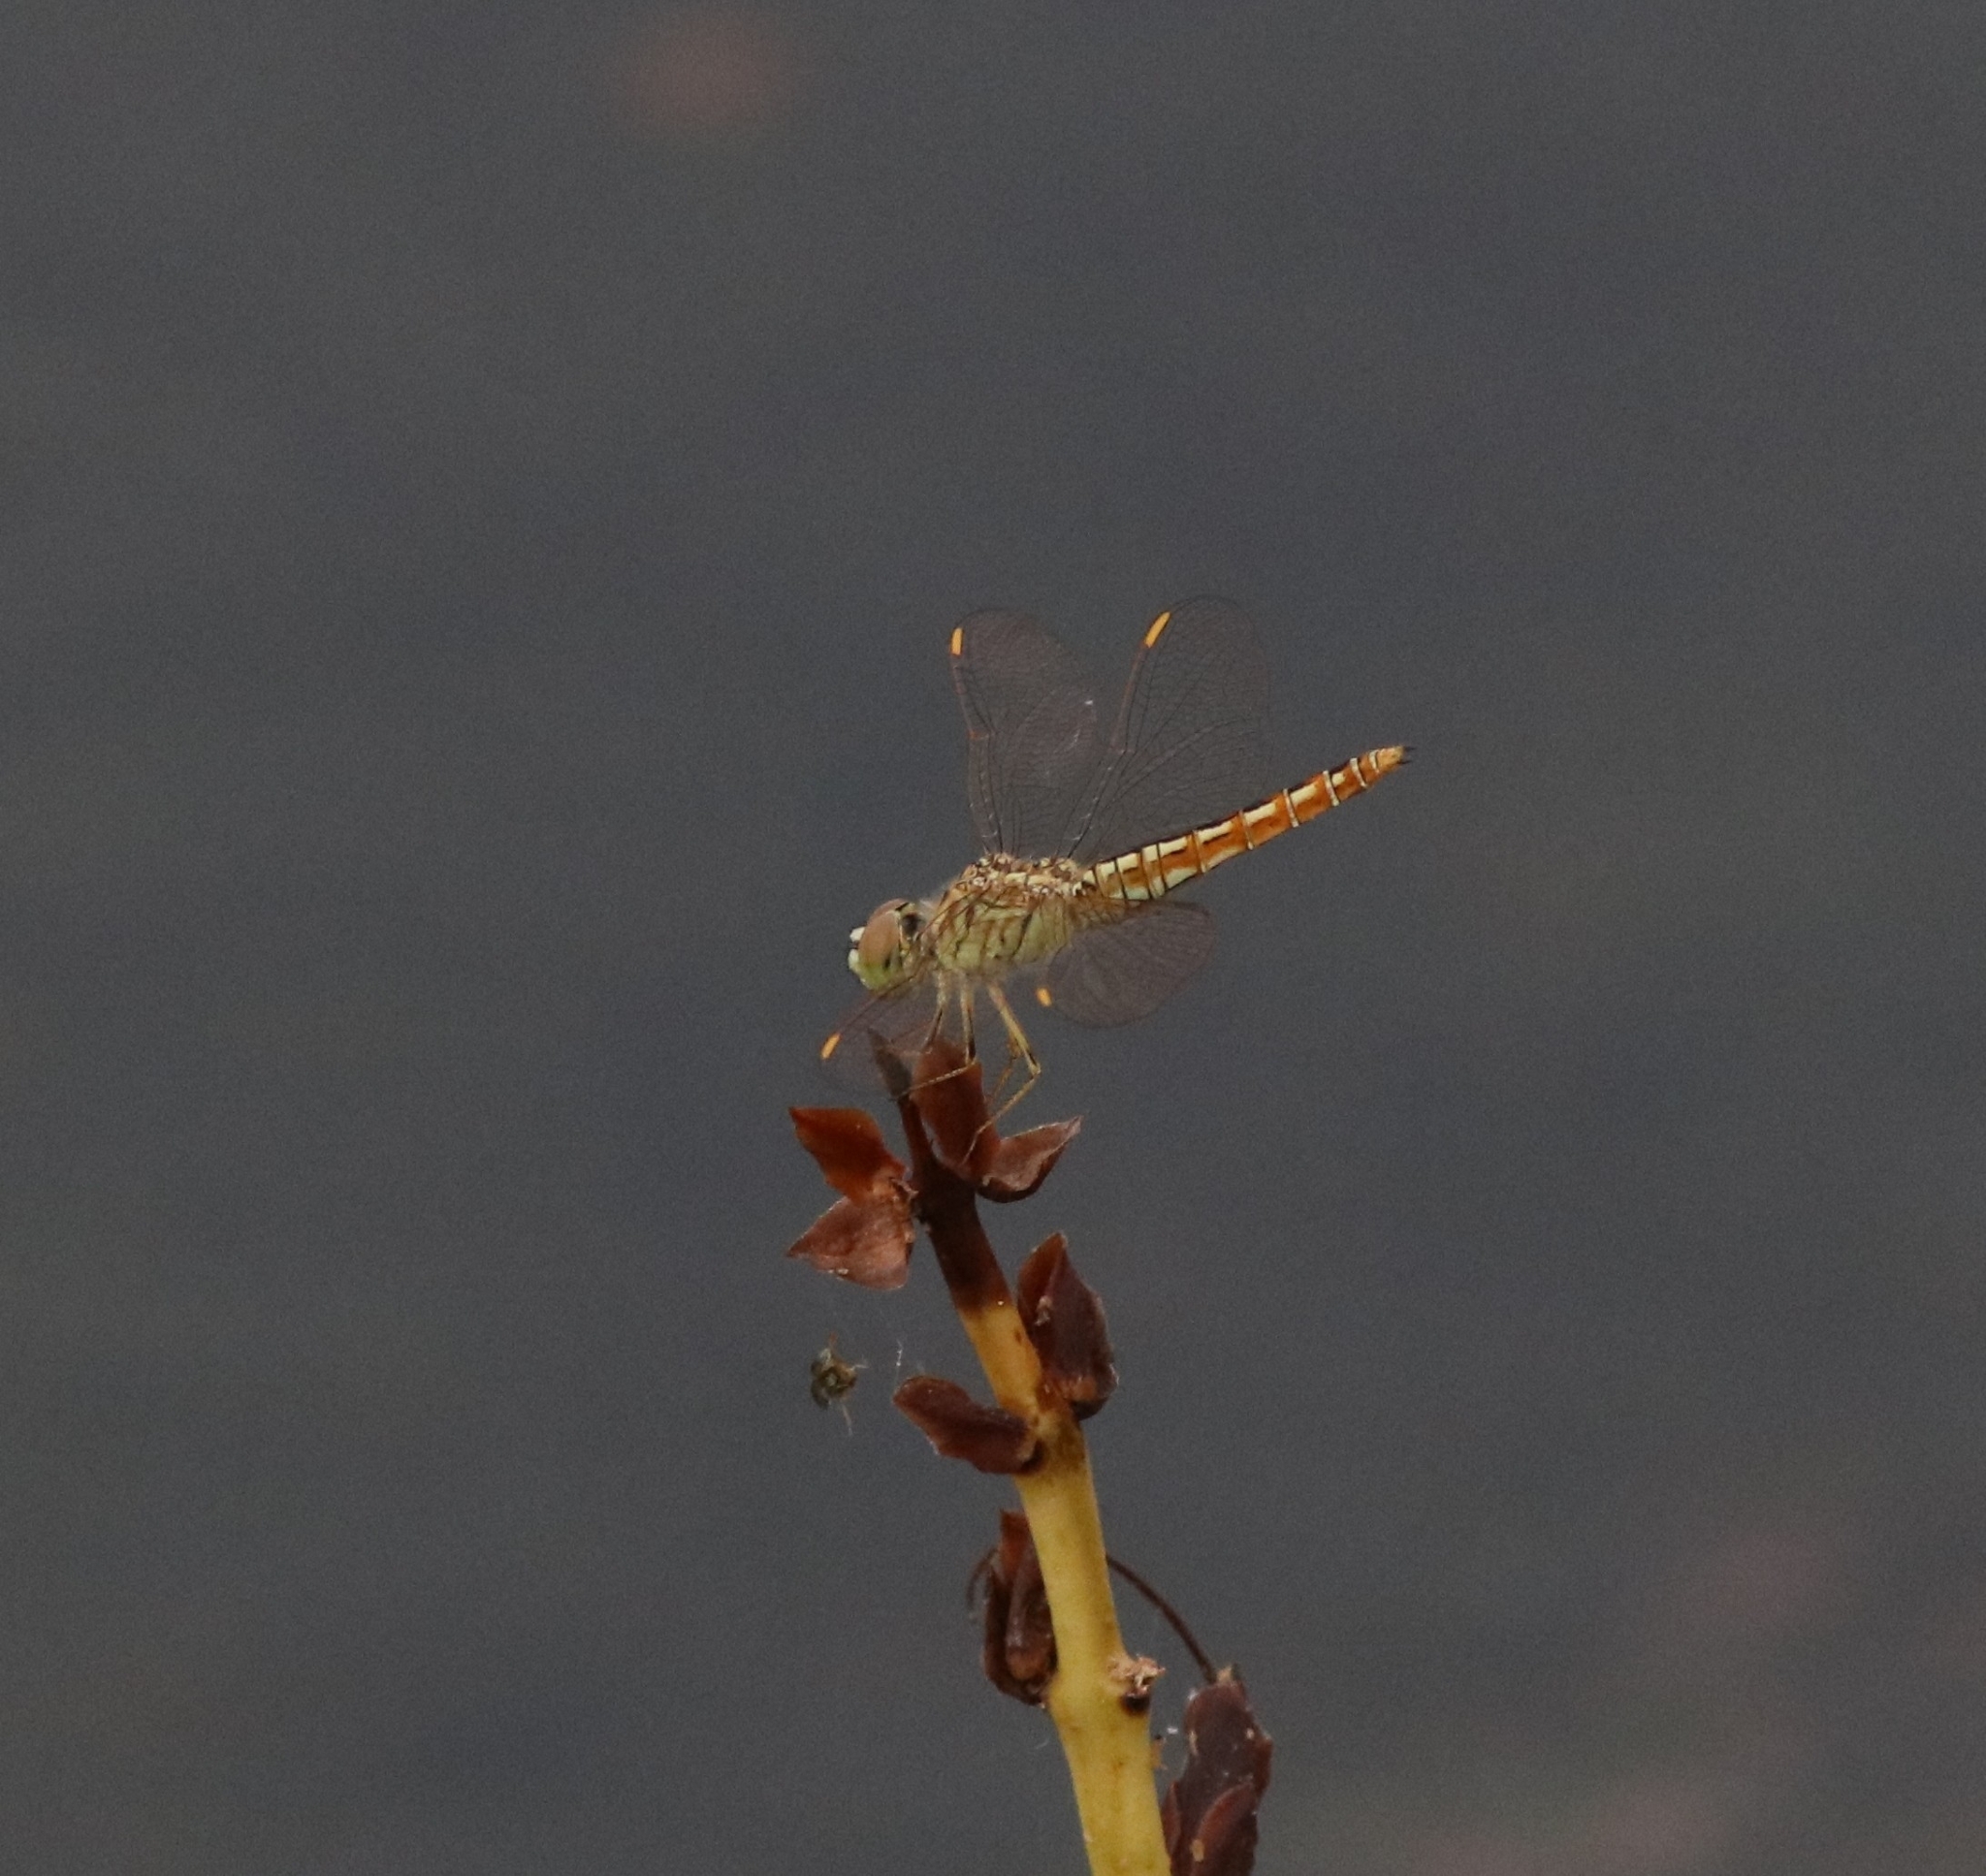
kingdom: Animalia
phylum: Arthropoda
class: Insecta
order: Odonata
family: Libellulidae
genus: Brachythemis
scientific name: Brachythemis contaminata
